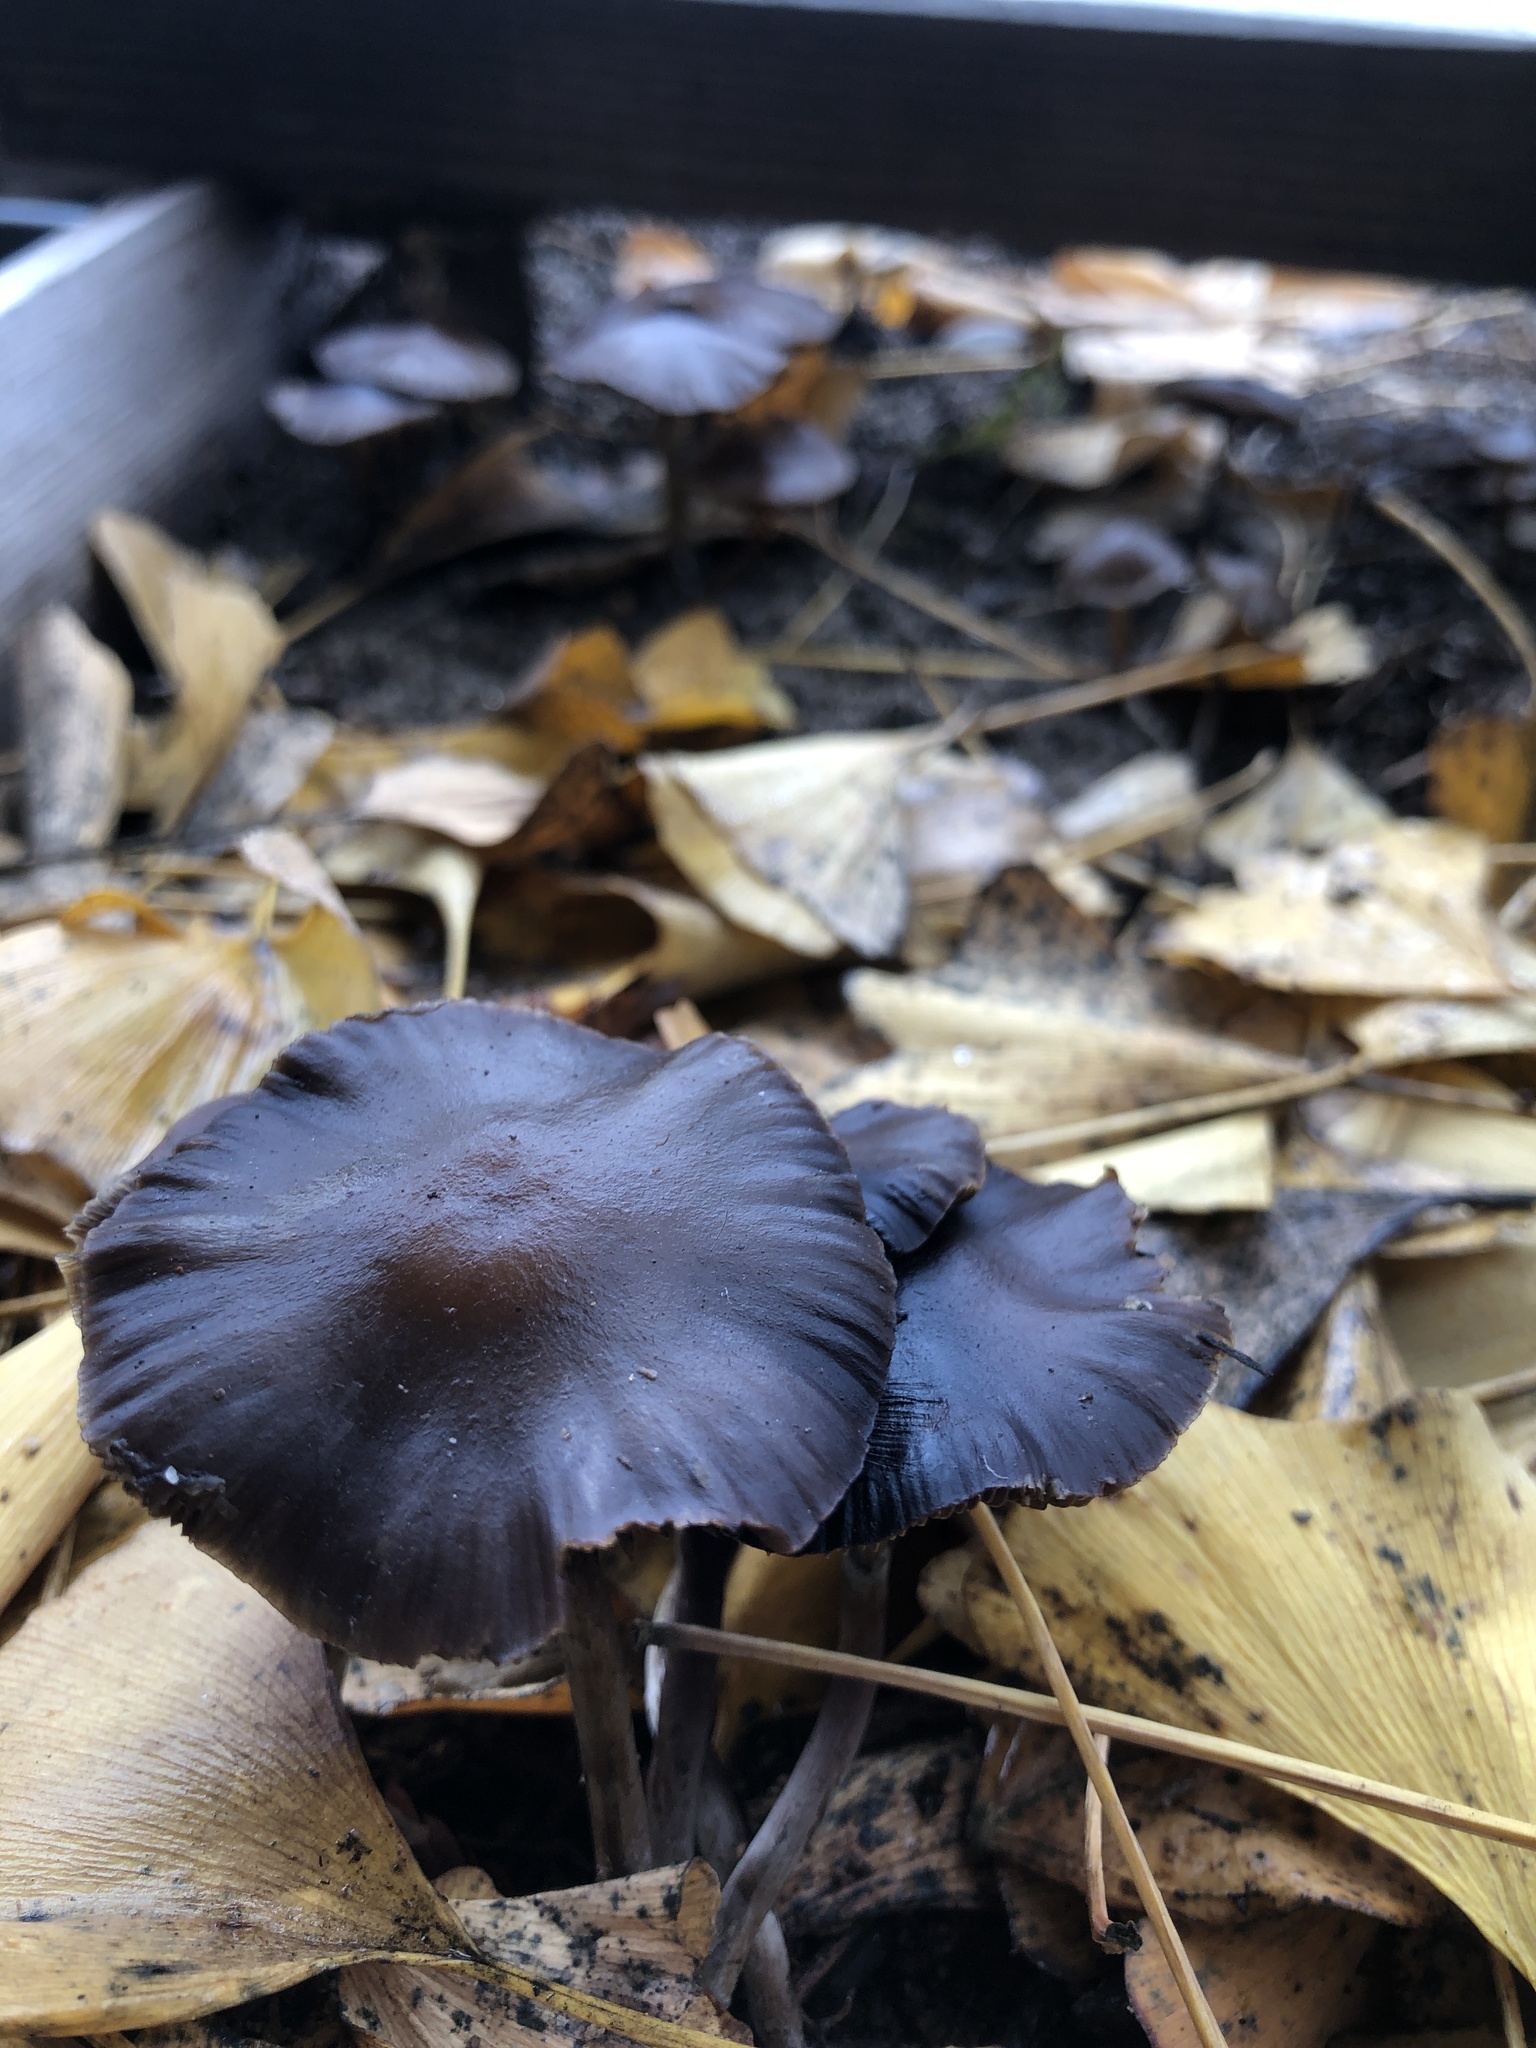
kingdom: Fungi
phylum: Basidiomycota
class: Agaricomycetes
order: Agaricales
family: Hymenogastraceae
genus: Psilocybe
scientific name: Psilocybe stuntzii
